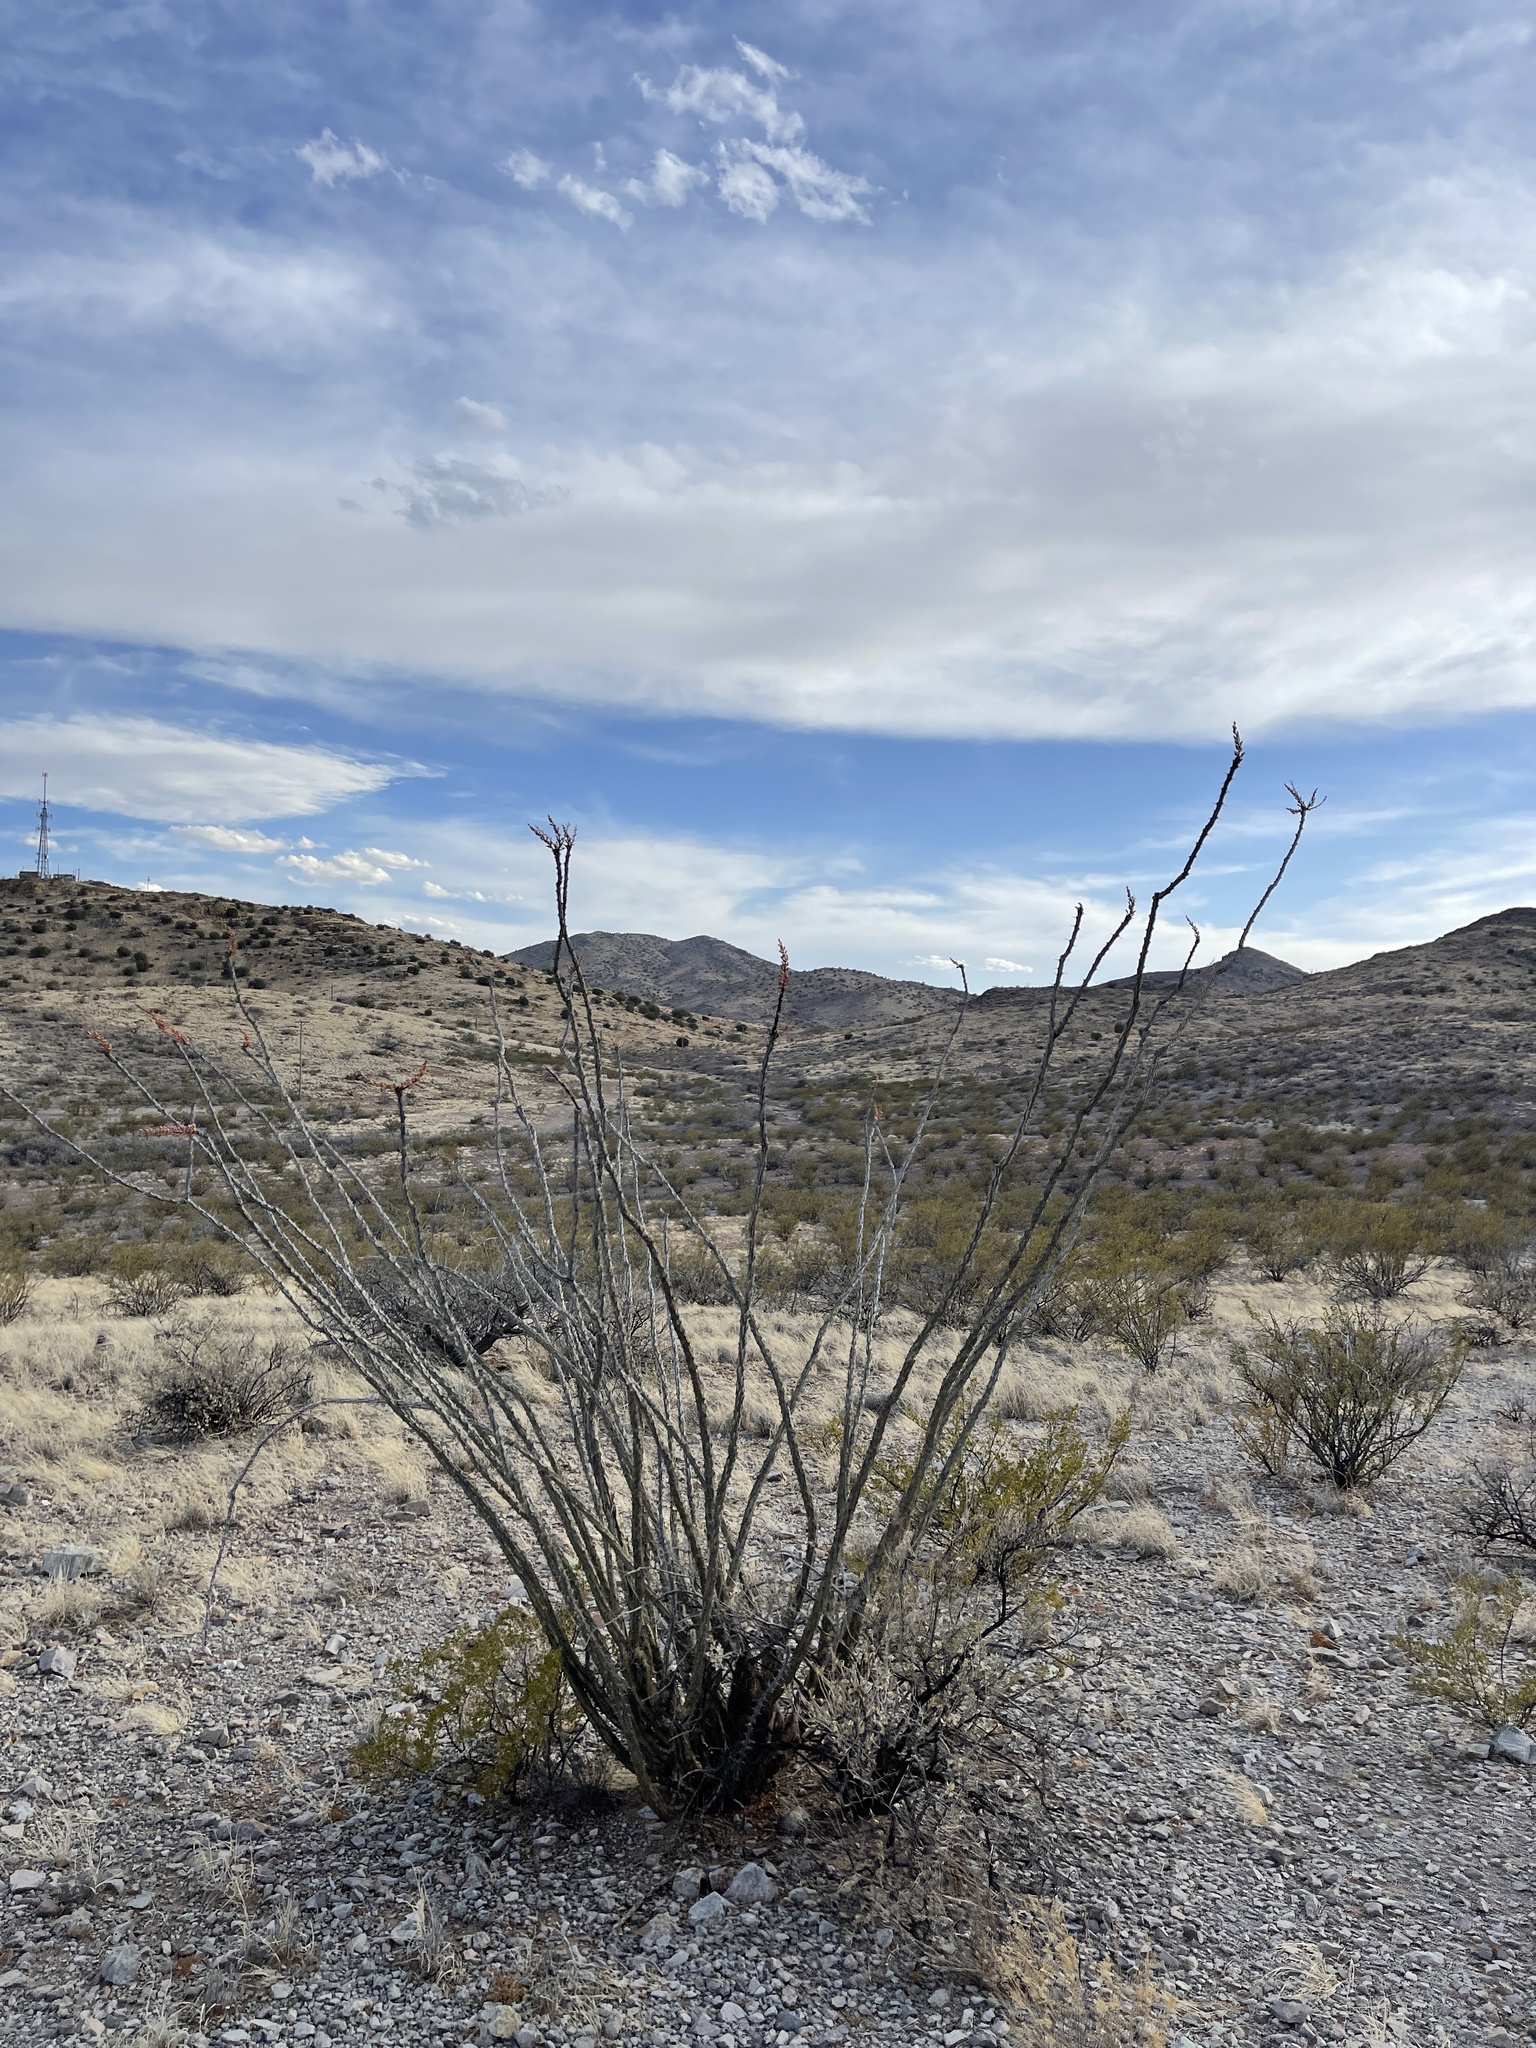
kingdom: Plantae
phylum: Tracheophyta
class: Magnoliopsida
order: Ericales
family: Fouquieriaceae
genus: Fouquieria
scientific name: Fouquieria splendens
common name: Vine-cactus
